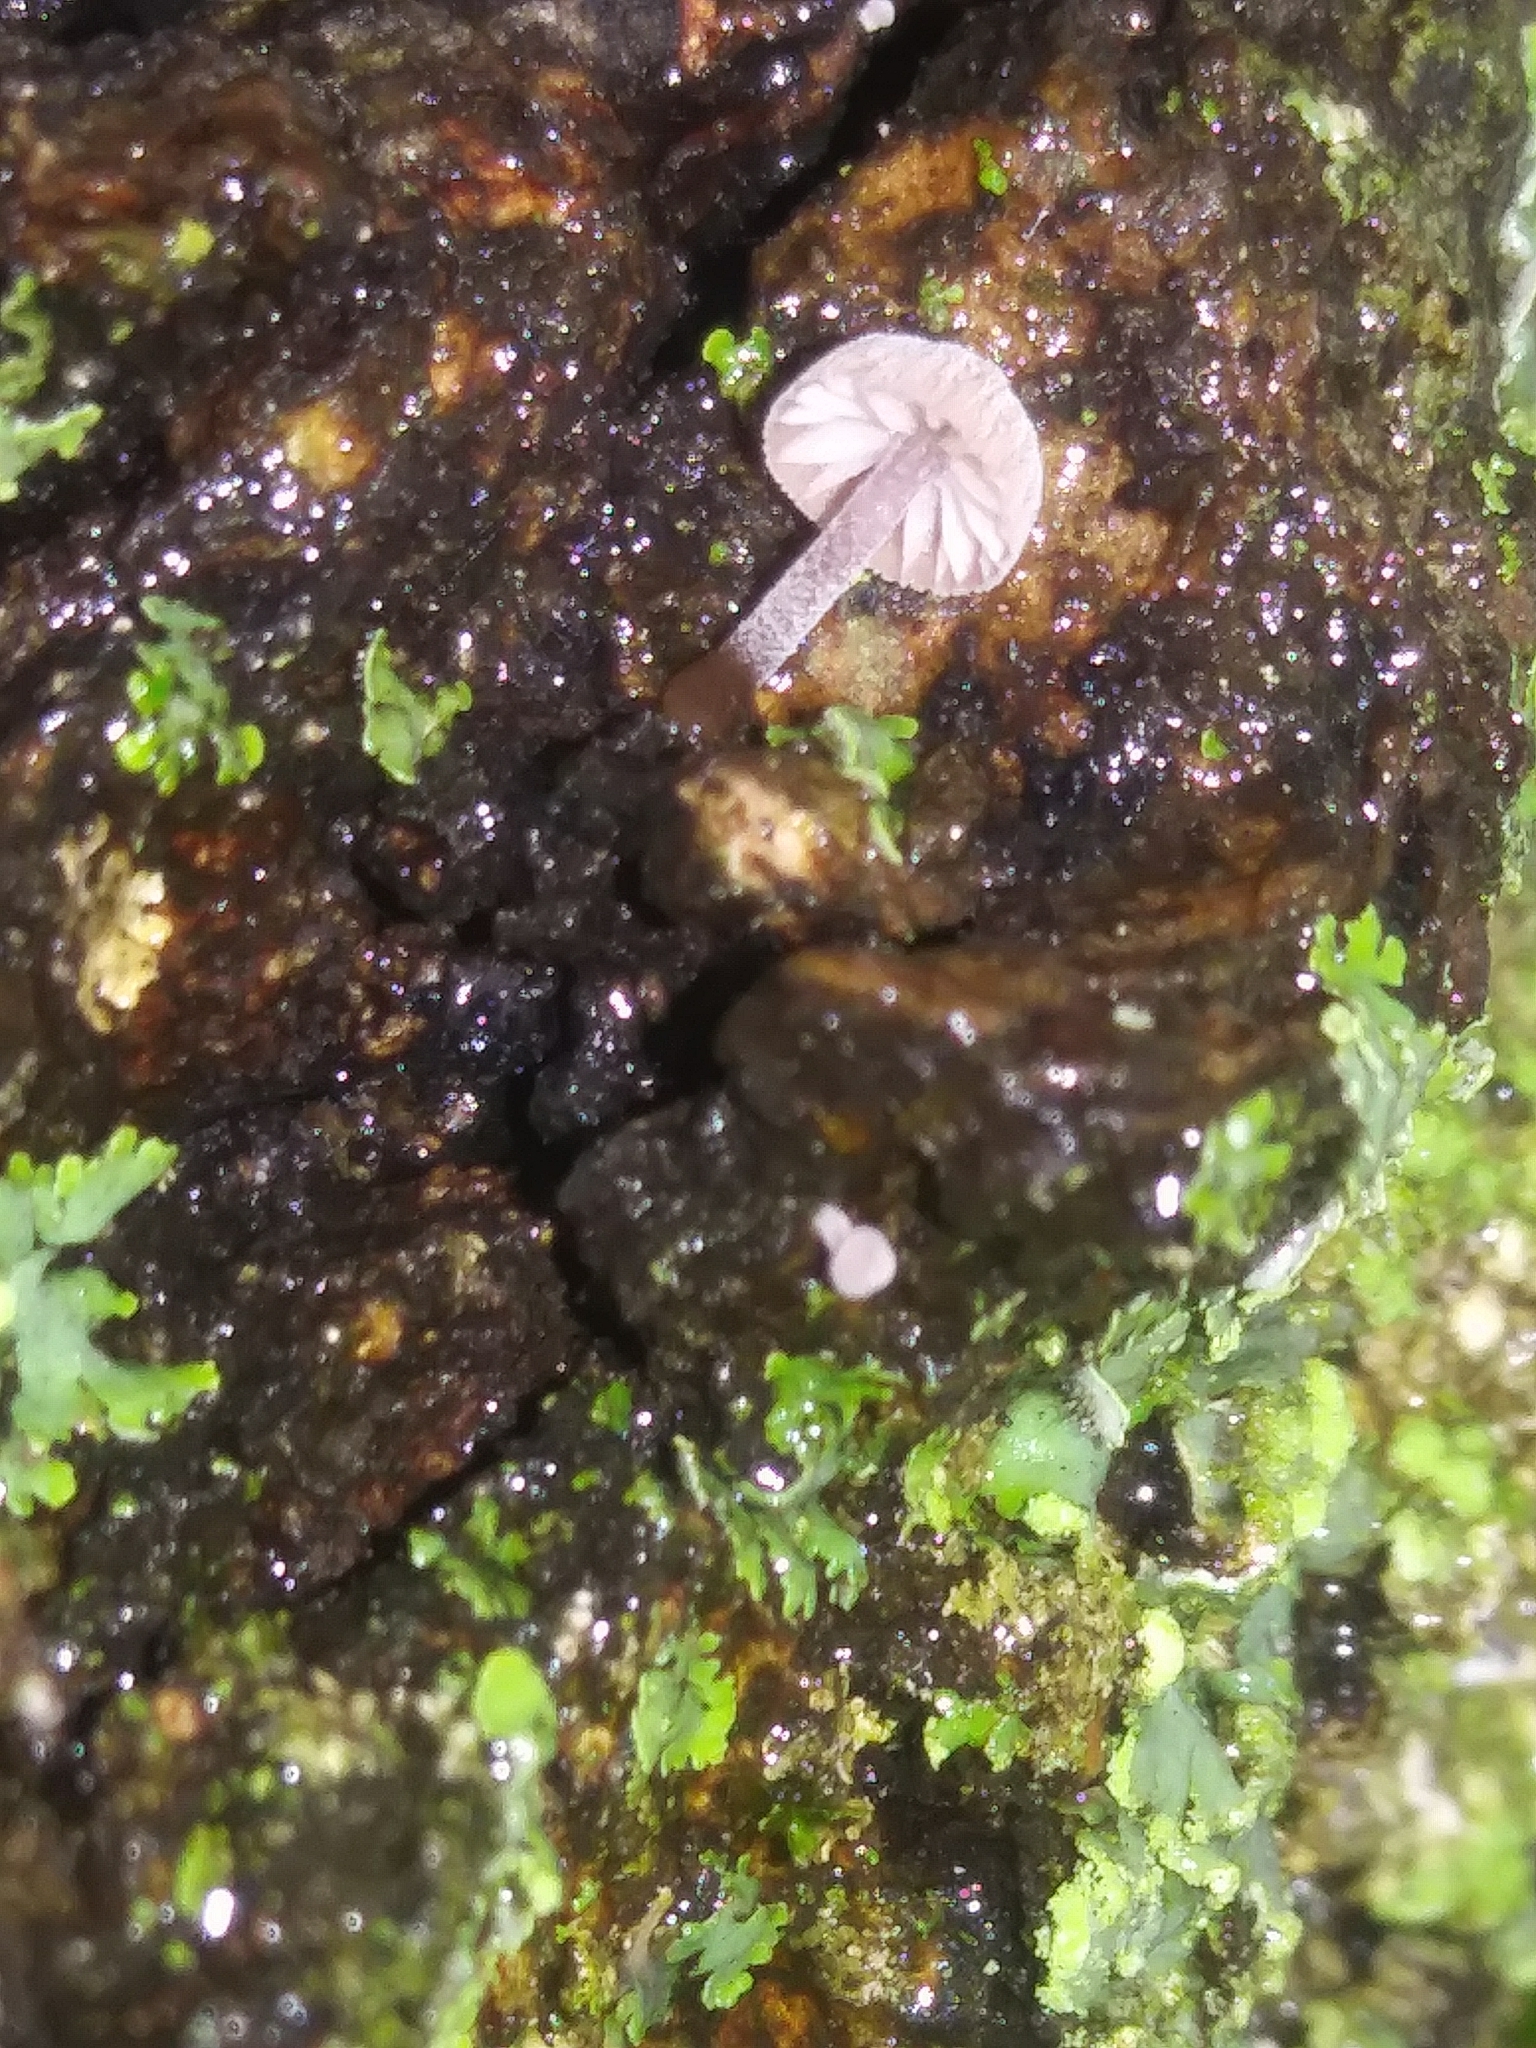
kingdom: Fungi
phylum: Basidiomycota
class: Agaricomycetes
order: Agaricales
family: Mycenaceae
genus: Mycena
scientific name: Mycena corticola
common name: Bark mycena
